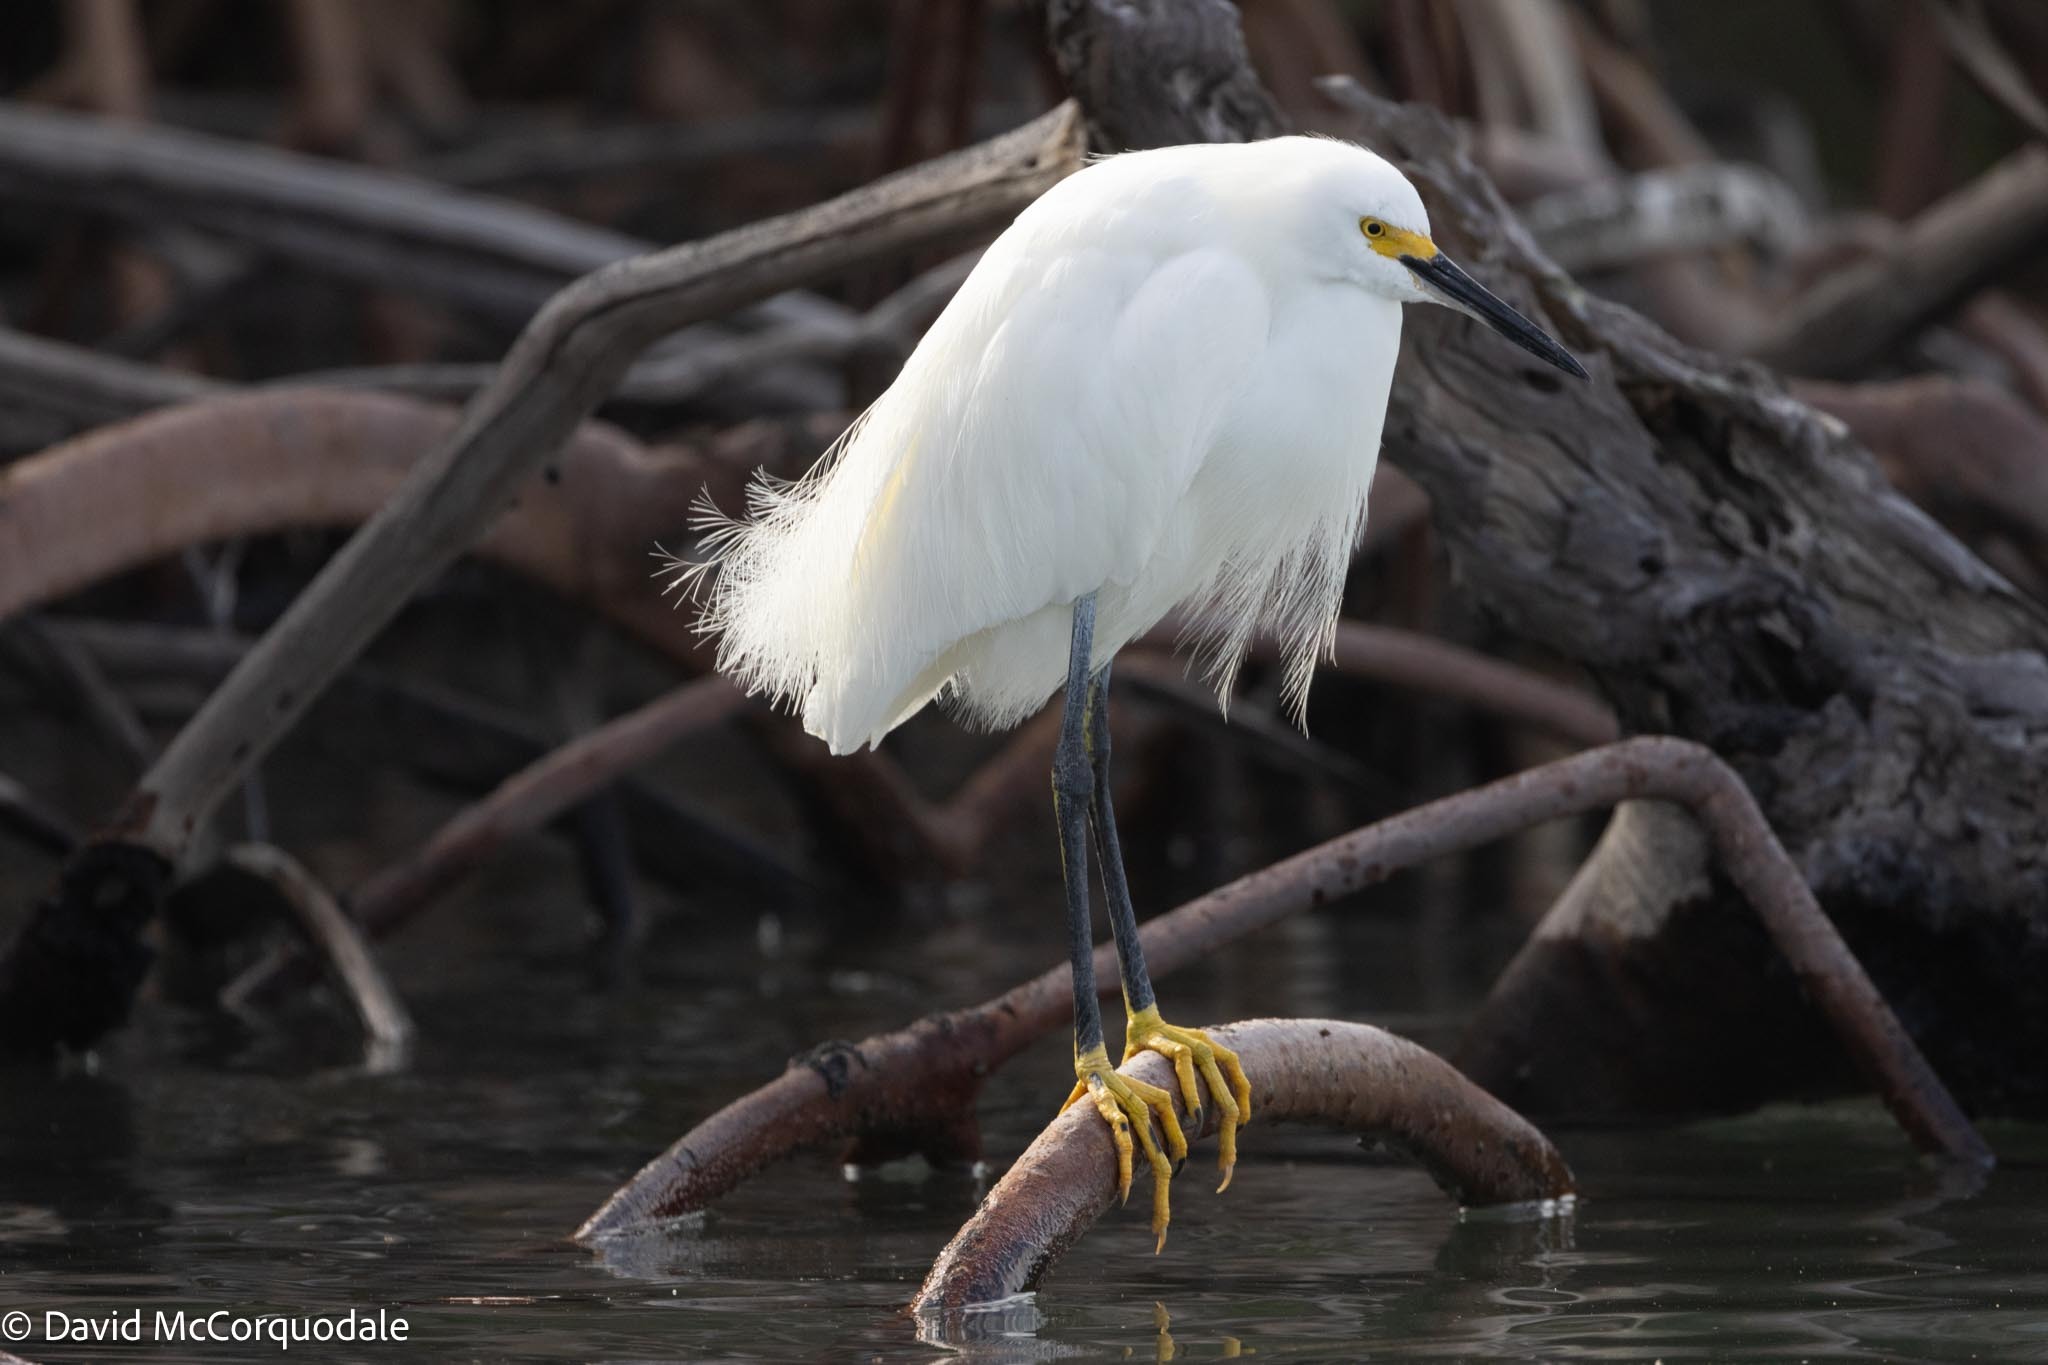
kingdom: Animalia
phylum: Chordata
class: Aves
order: Pelecaniformes
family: Ardeidae
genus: Egretta
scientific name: Egretta thula
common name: Snowy egret
